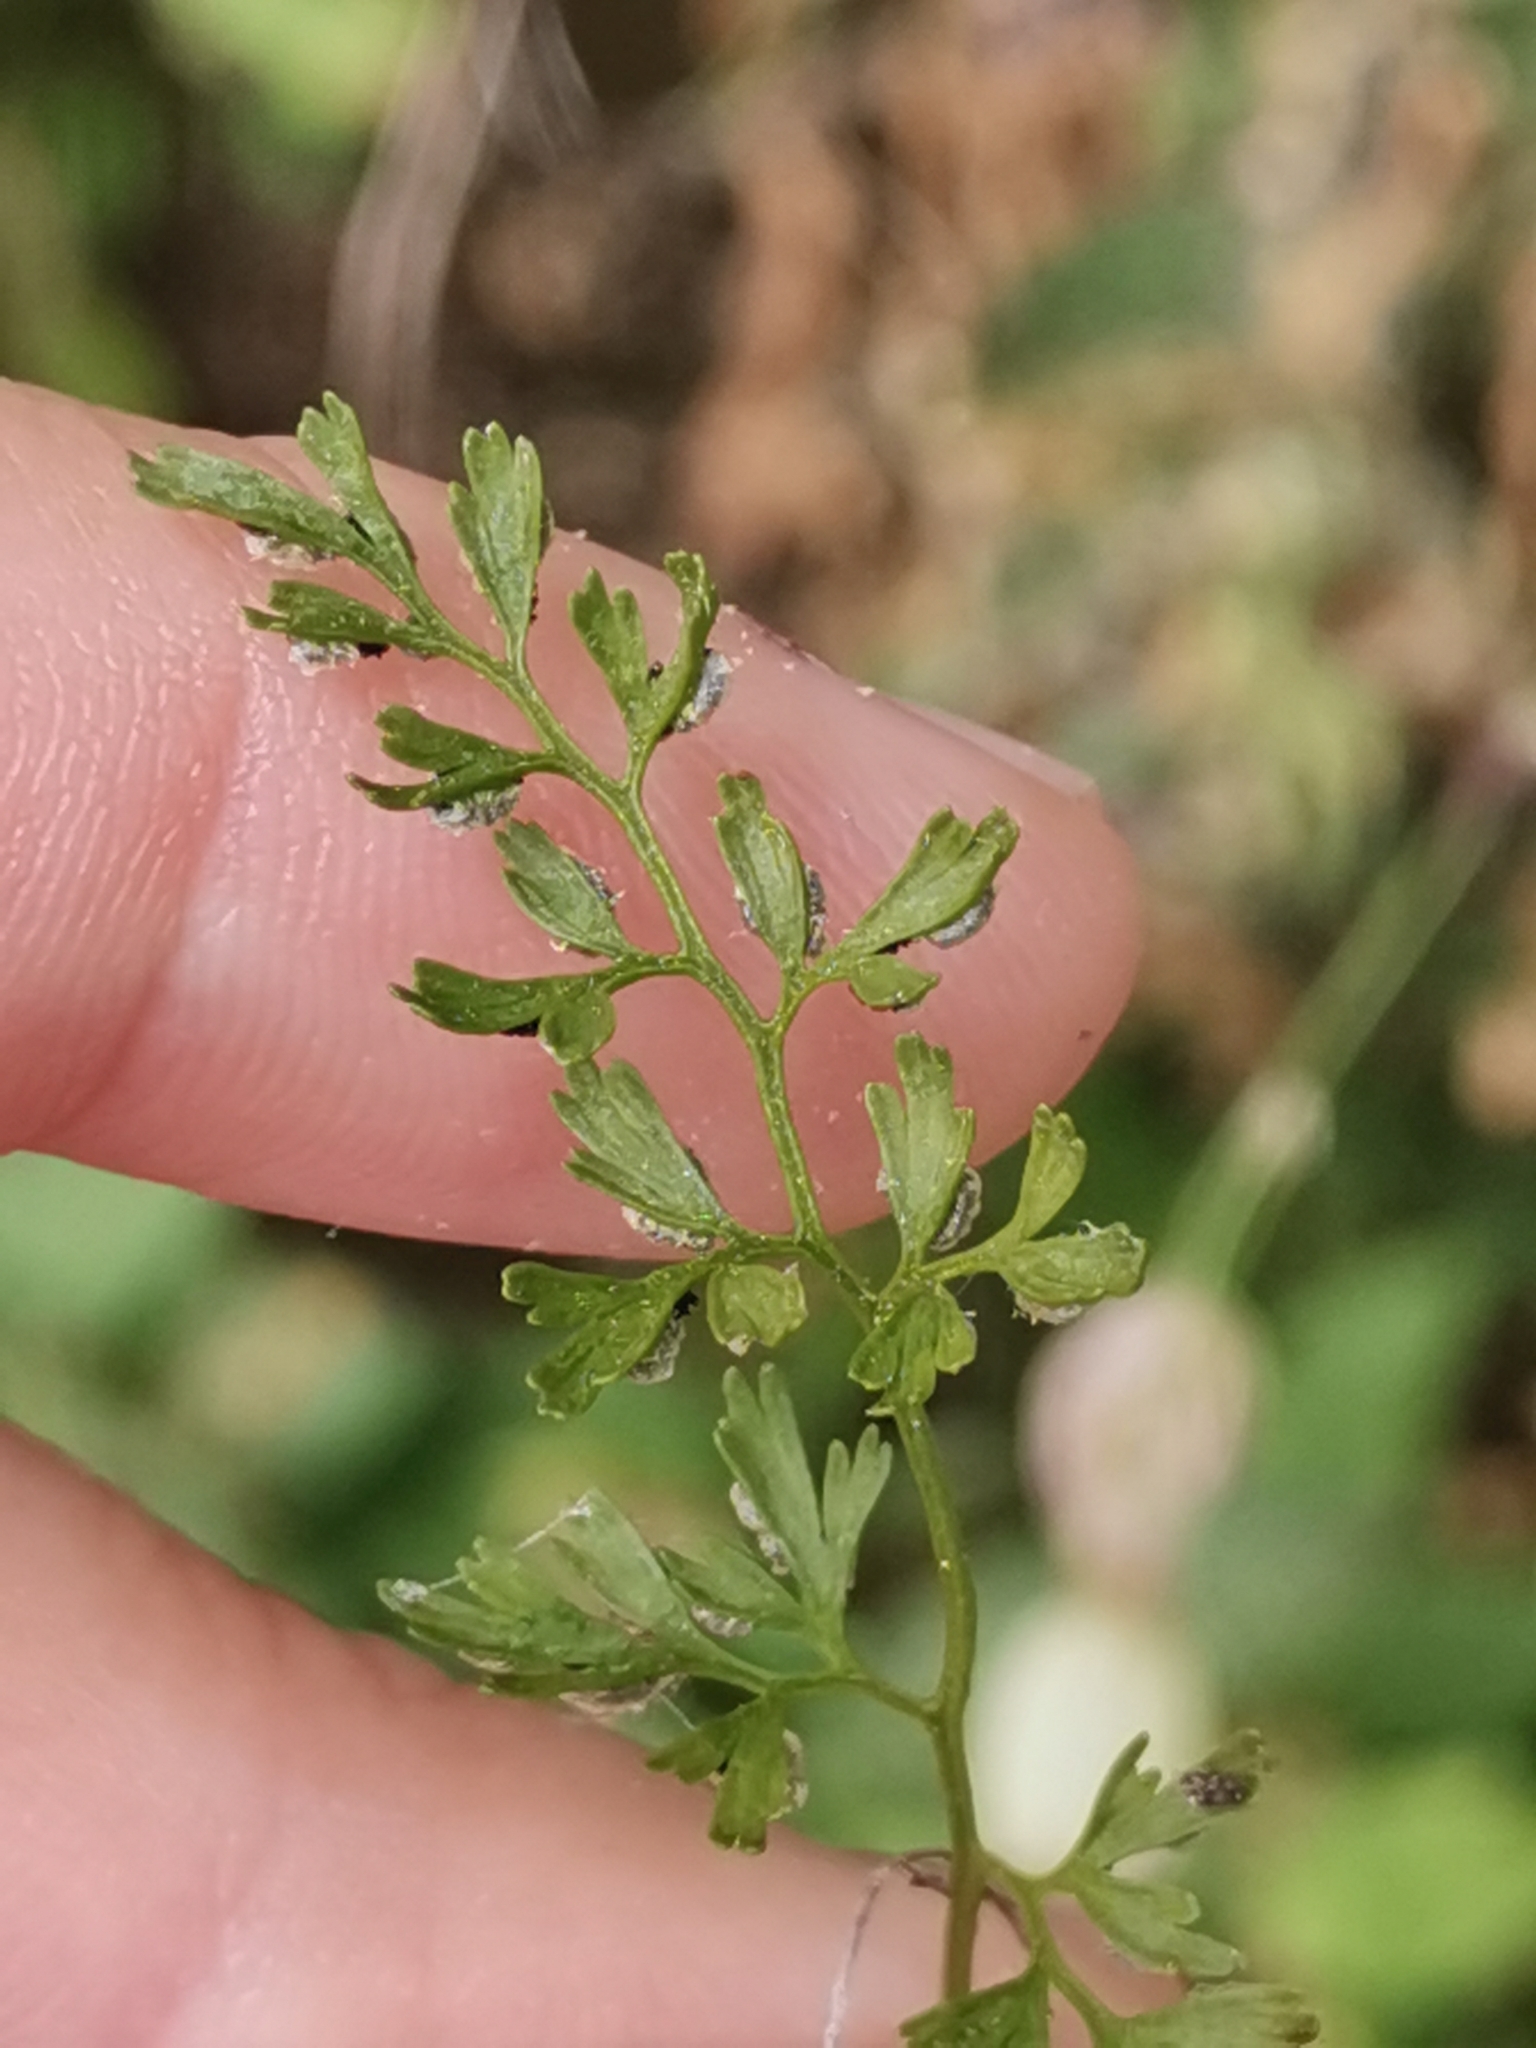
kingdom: Plantae
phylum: Tracheophyta
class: Polypodiopsida
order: Polypodiales
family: Aspleniaceae
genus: Asplenium
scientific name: Asplenium fissum
